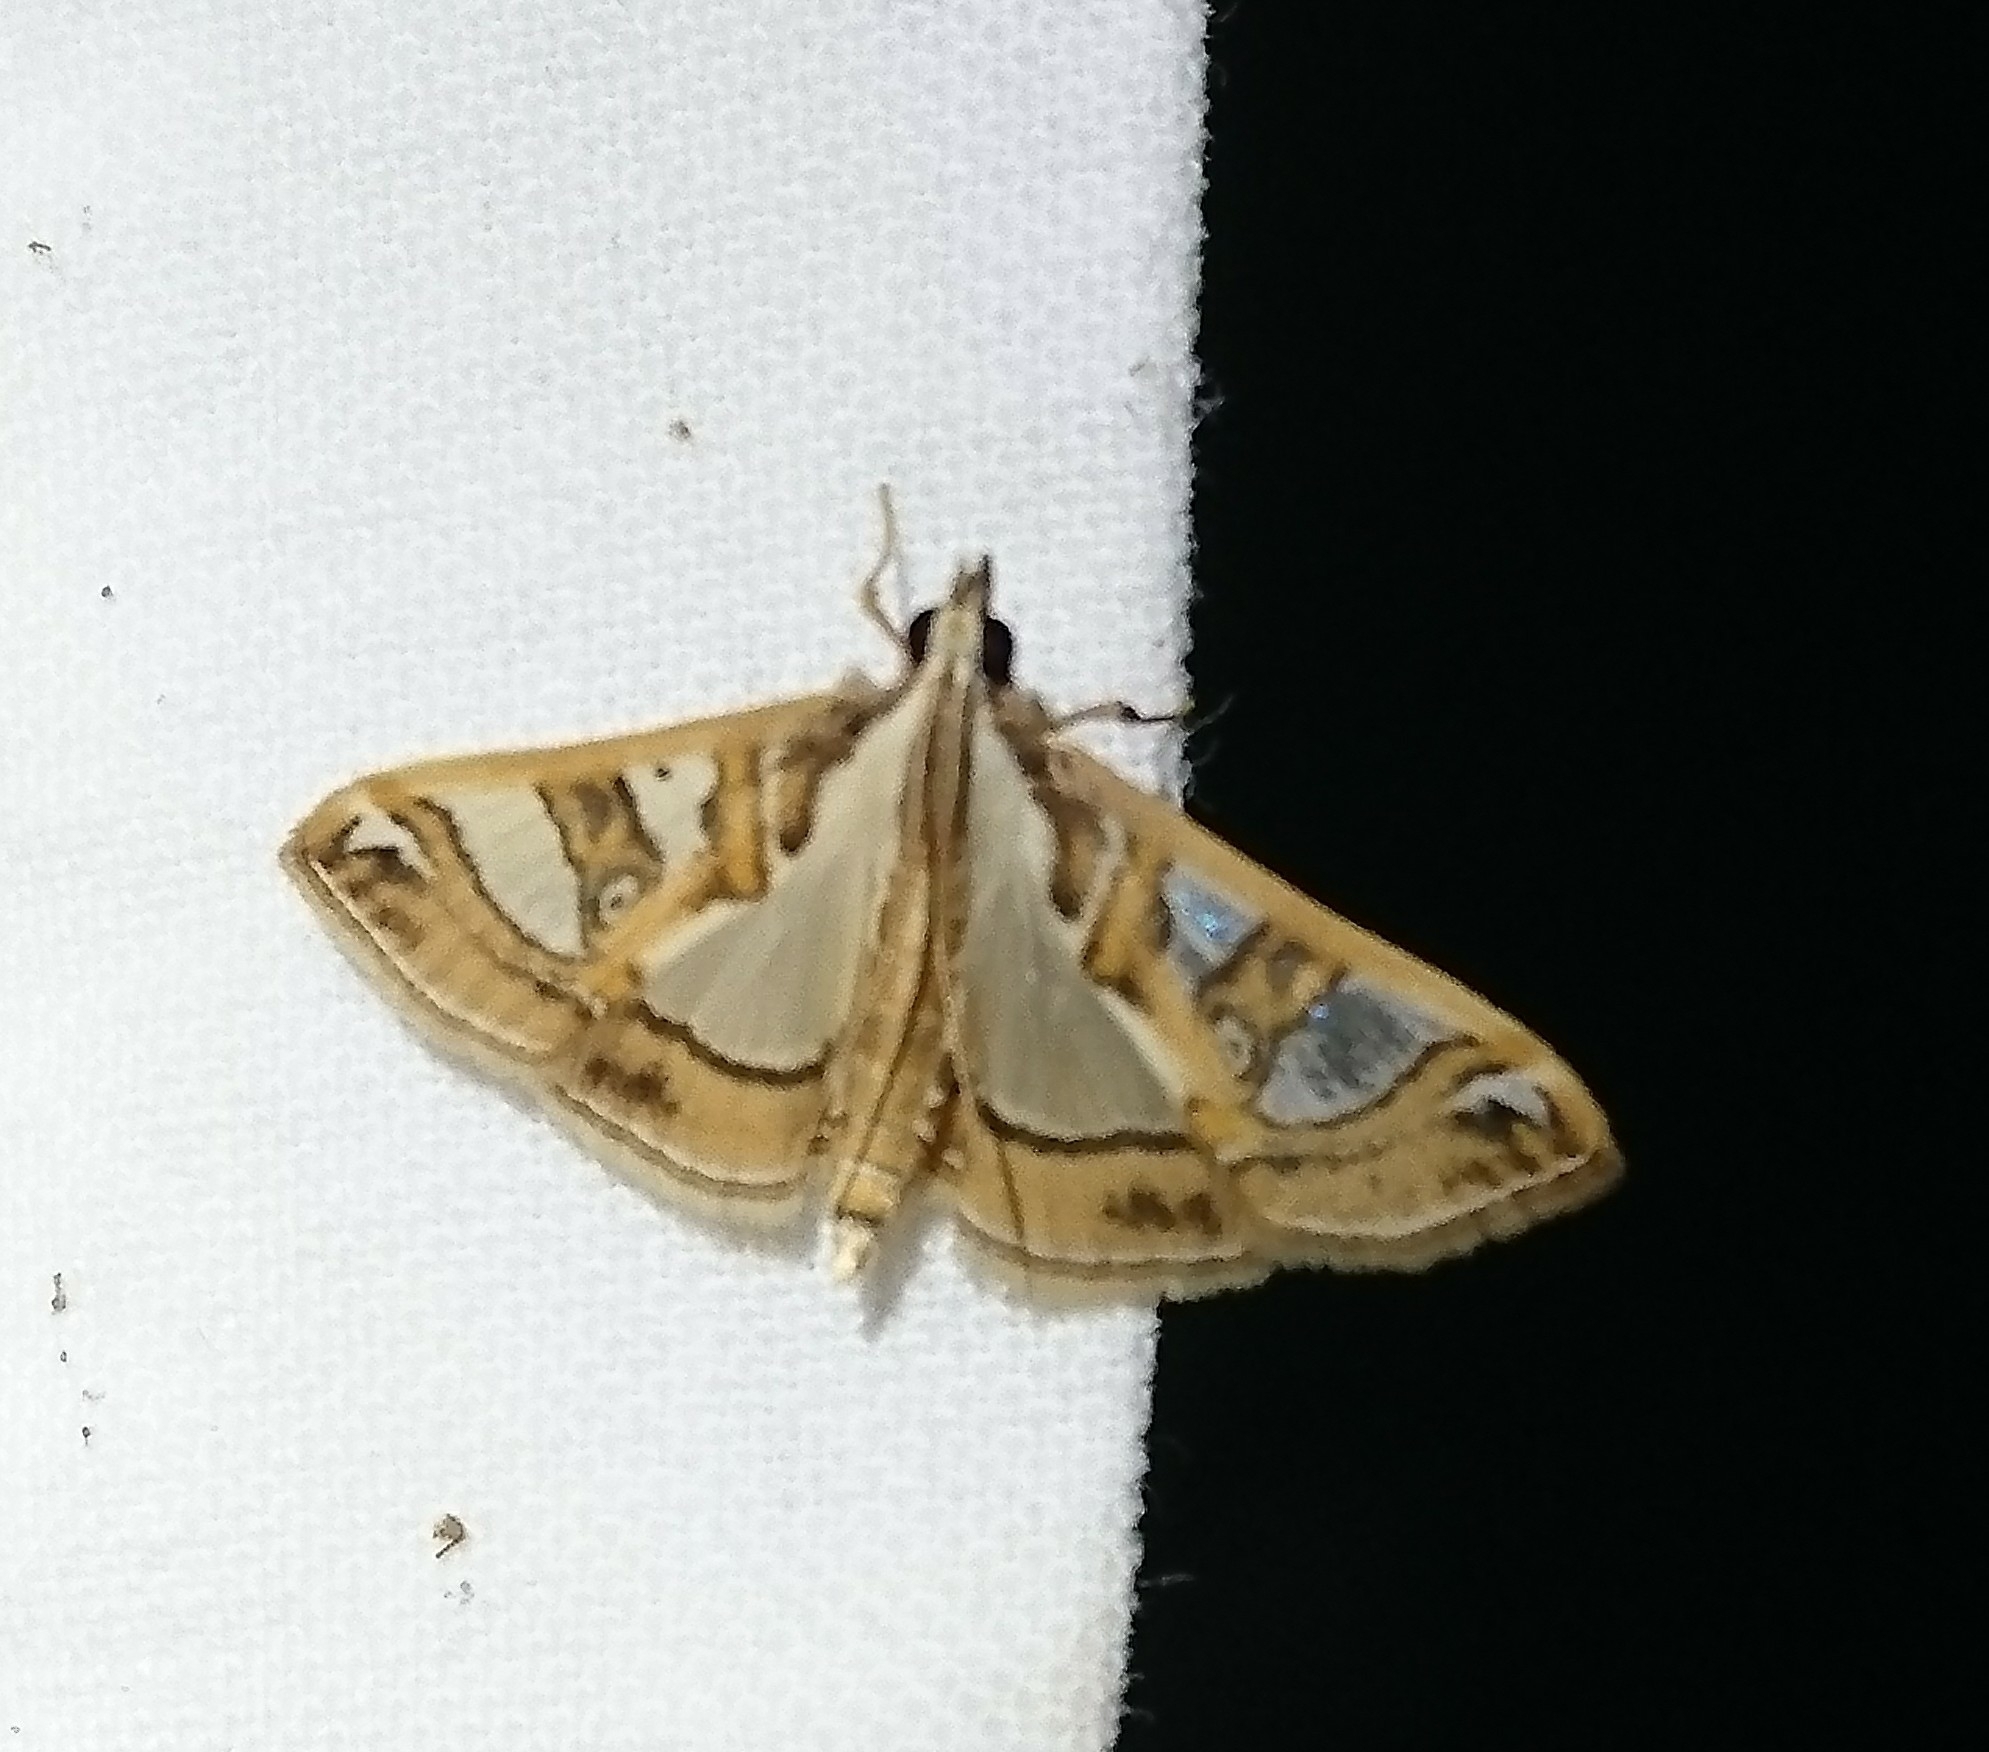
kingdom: Animalia
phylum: Arthropoda
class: Insecta
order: Lepidoptera
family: Crambidae
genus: Glyphodes
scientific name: Glyphodes pyloalis
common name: Lesser mulberry snout moth
